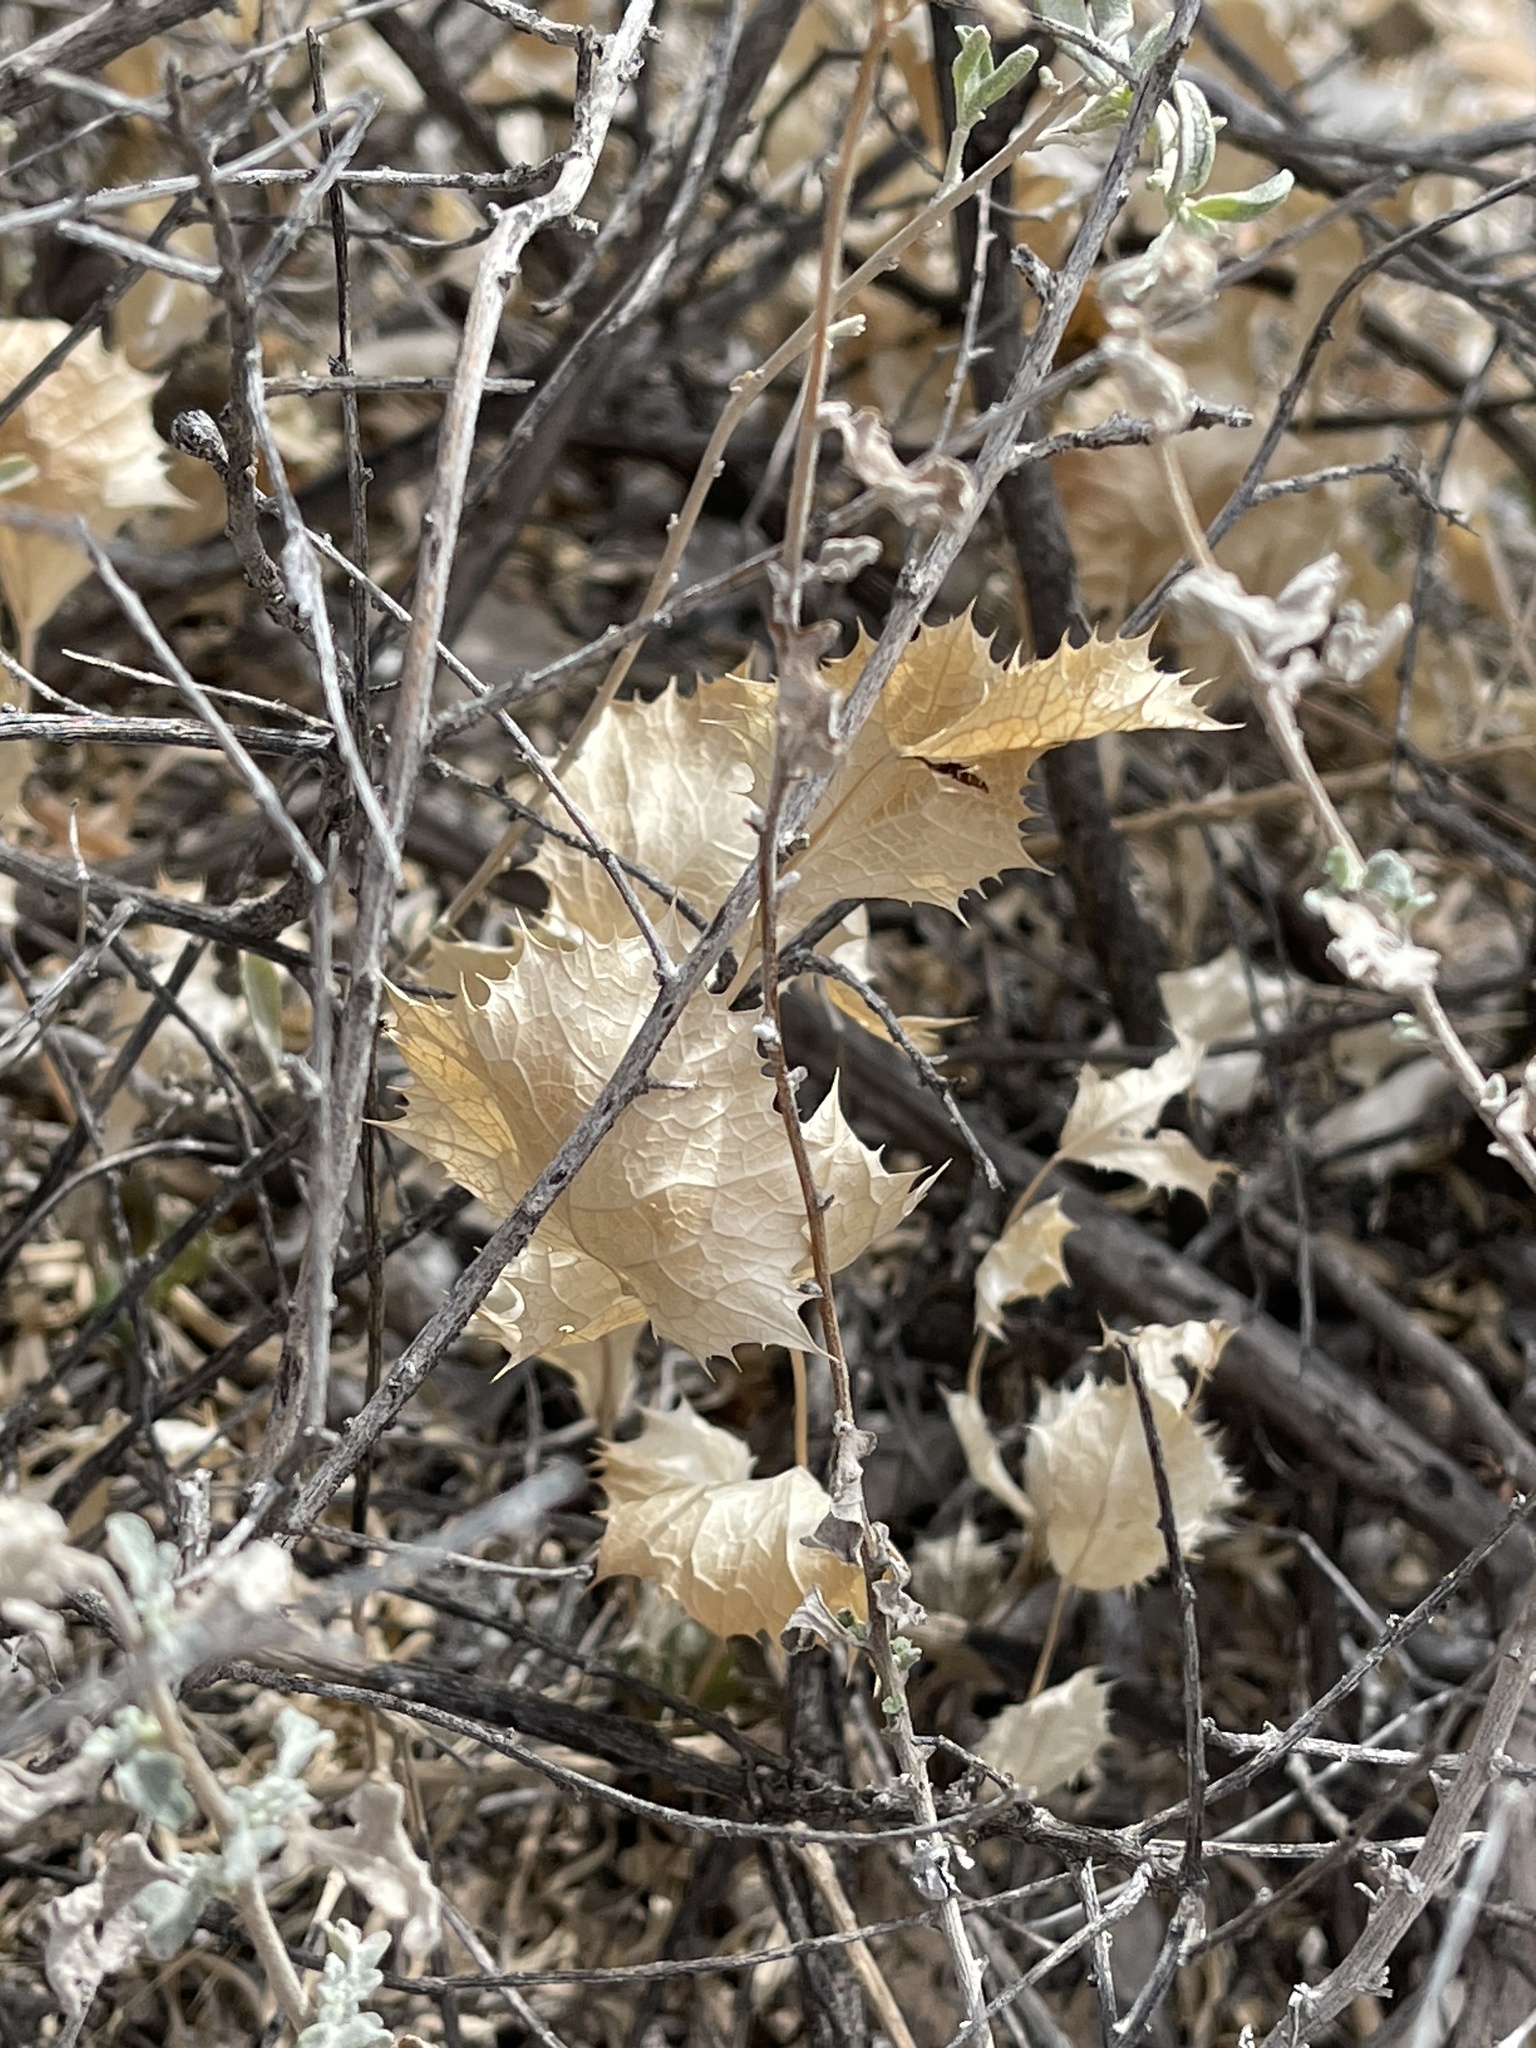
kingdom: Plantae
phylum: Tracheophyta
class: Magnoliopsida
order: Asterales
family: Asteraceae
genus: Acourtia
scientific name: Acourtia nana
